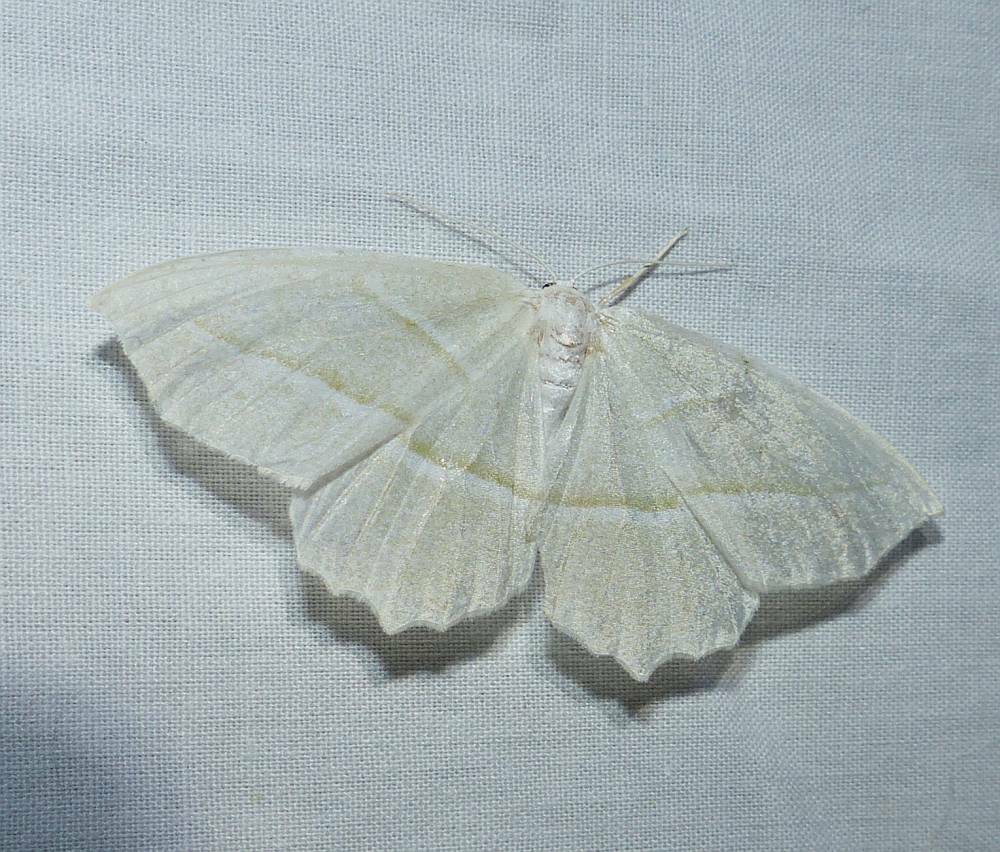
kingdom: Animalia
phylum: Arthropoda
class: Insecta
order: Lepidoptera
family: Geometridae
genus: Campaea
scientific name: Campaea perlata
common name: Fringed looper
